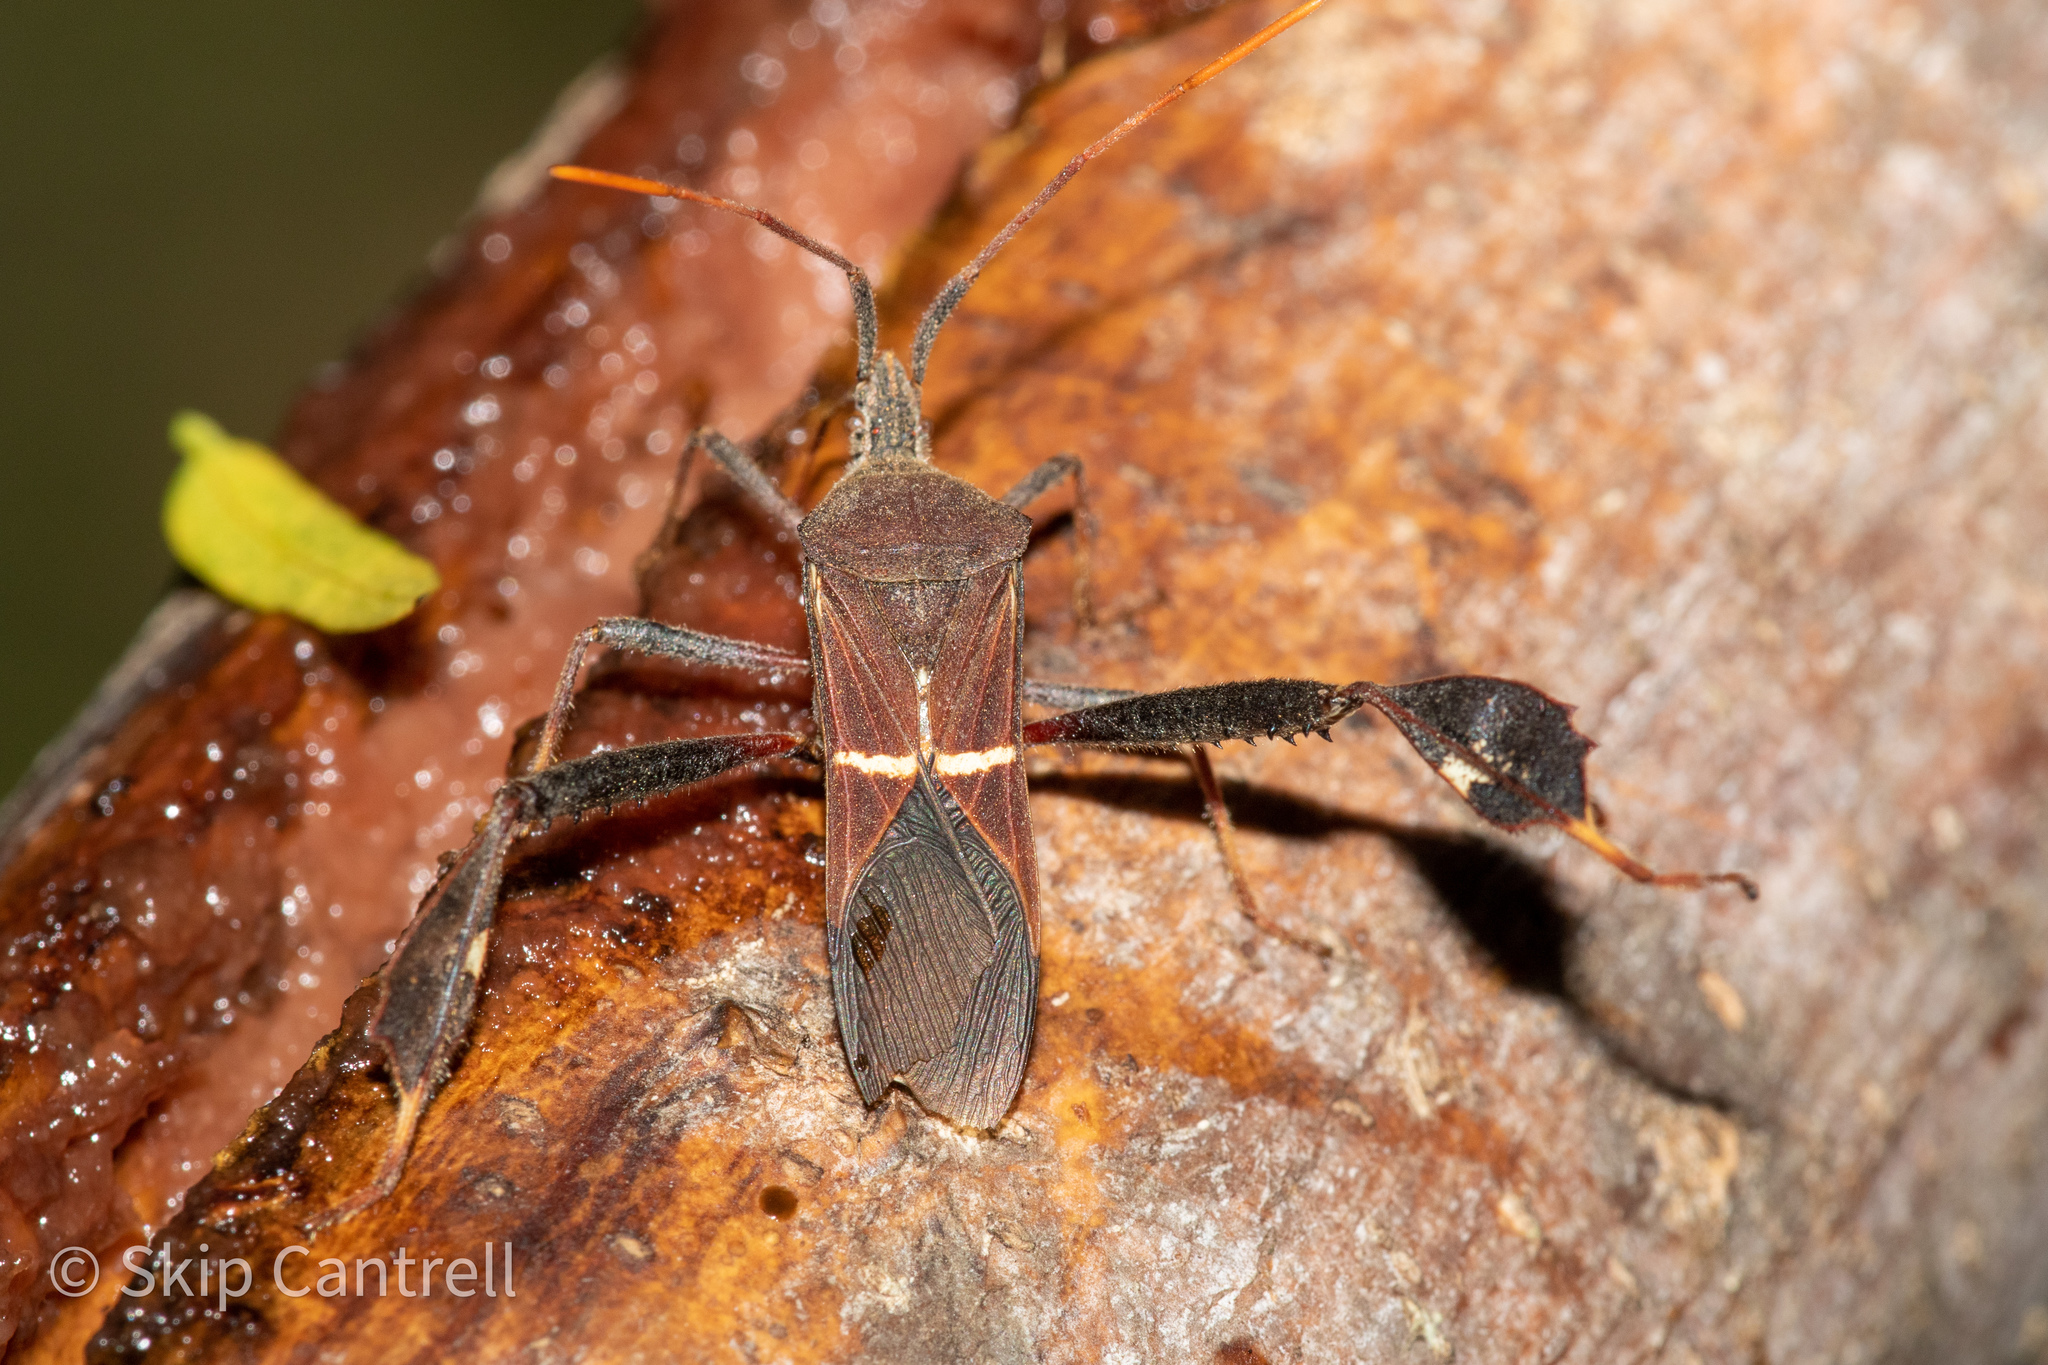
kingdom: Animalia
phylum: Arthropoda
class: Insecta
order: Hemiptera
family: Coreidae
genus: Leptoglossus
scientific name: Leptoglossus phyllopus
